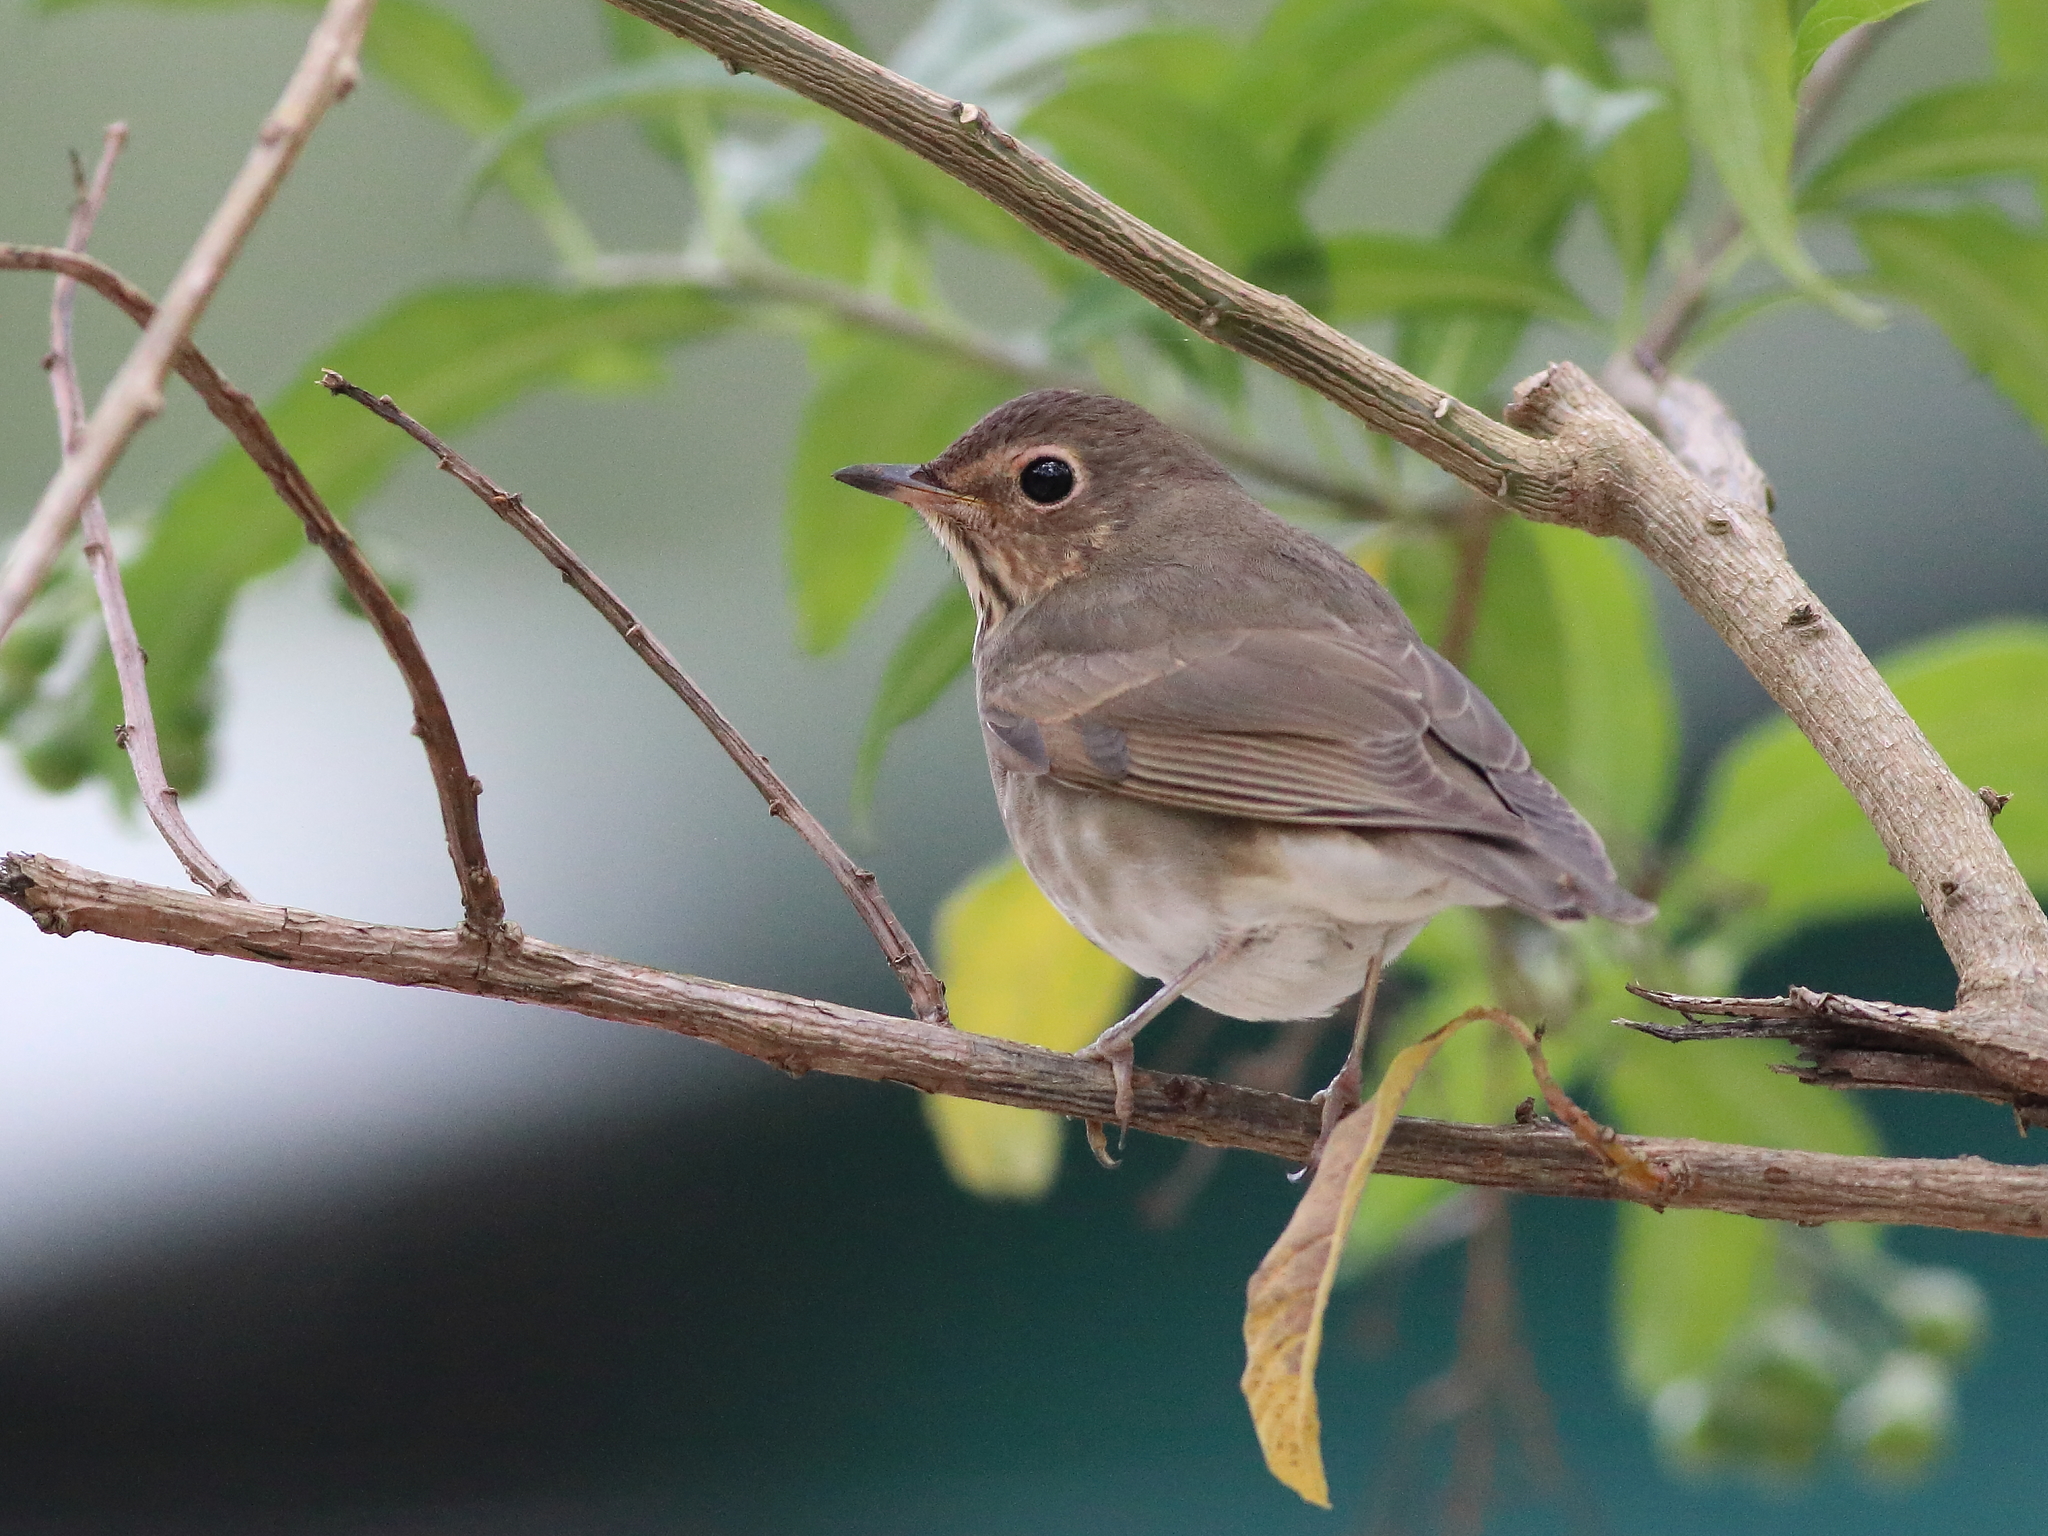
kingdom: Animalia
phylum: Chordata
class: Aves
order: Passeriformes
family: Turdidae
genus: Catharus
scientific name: Catharus ustulatus
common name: Swainson's thrush
